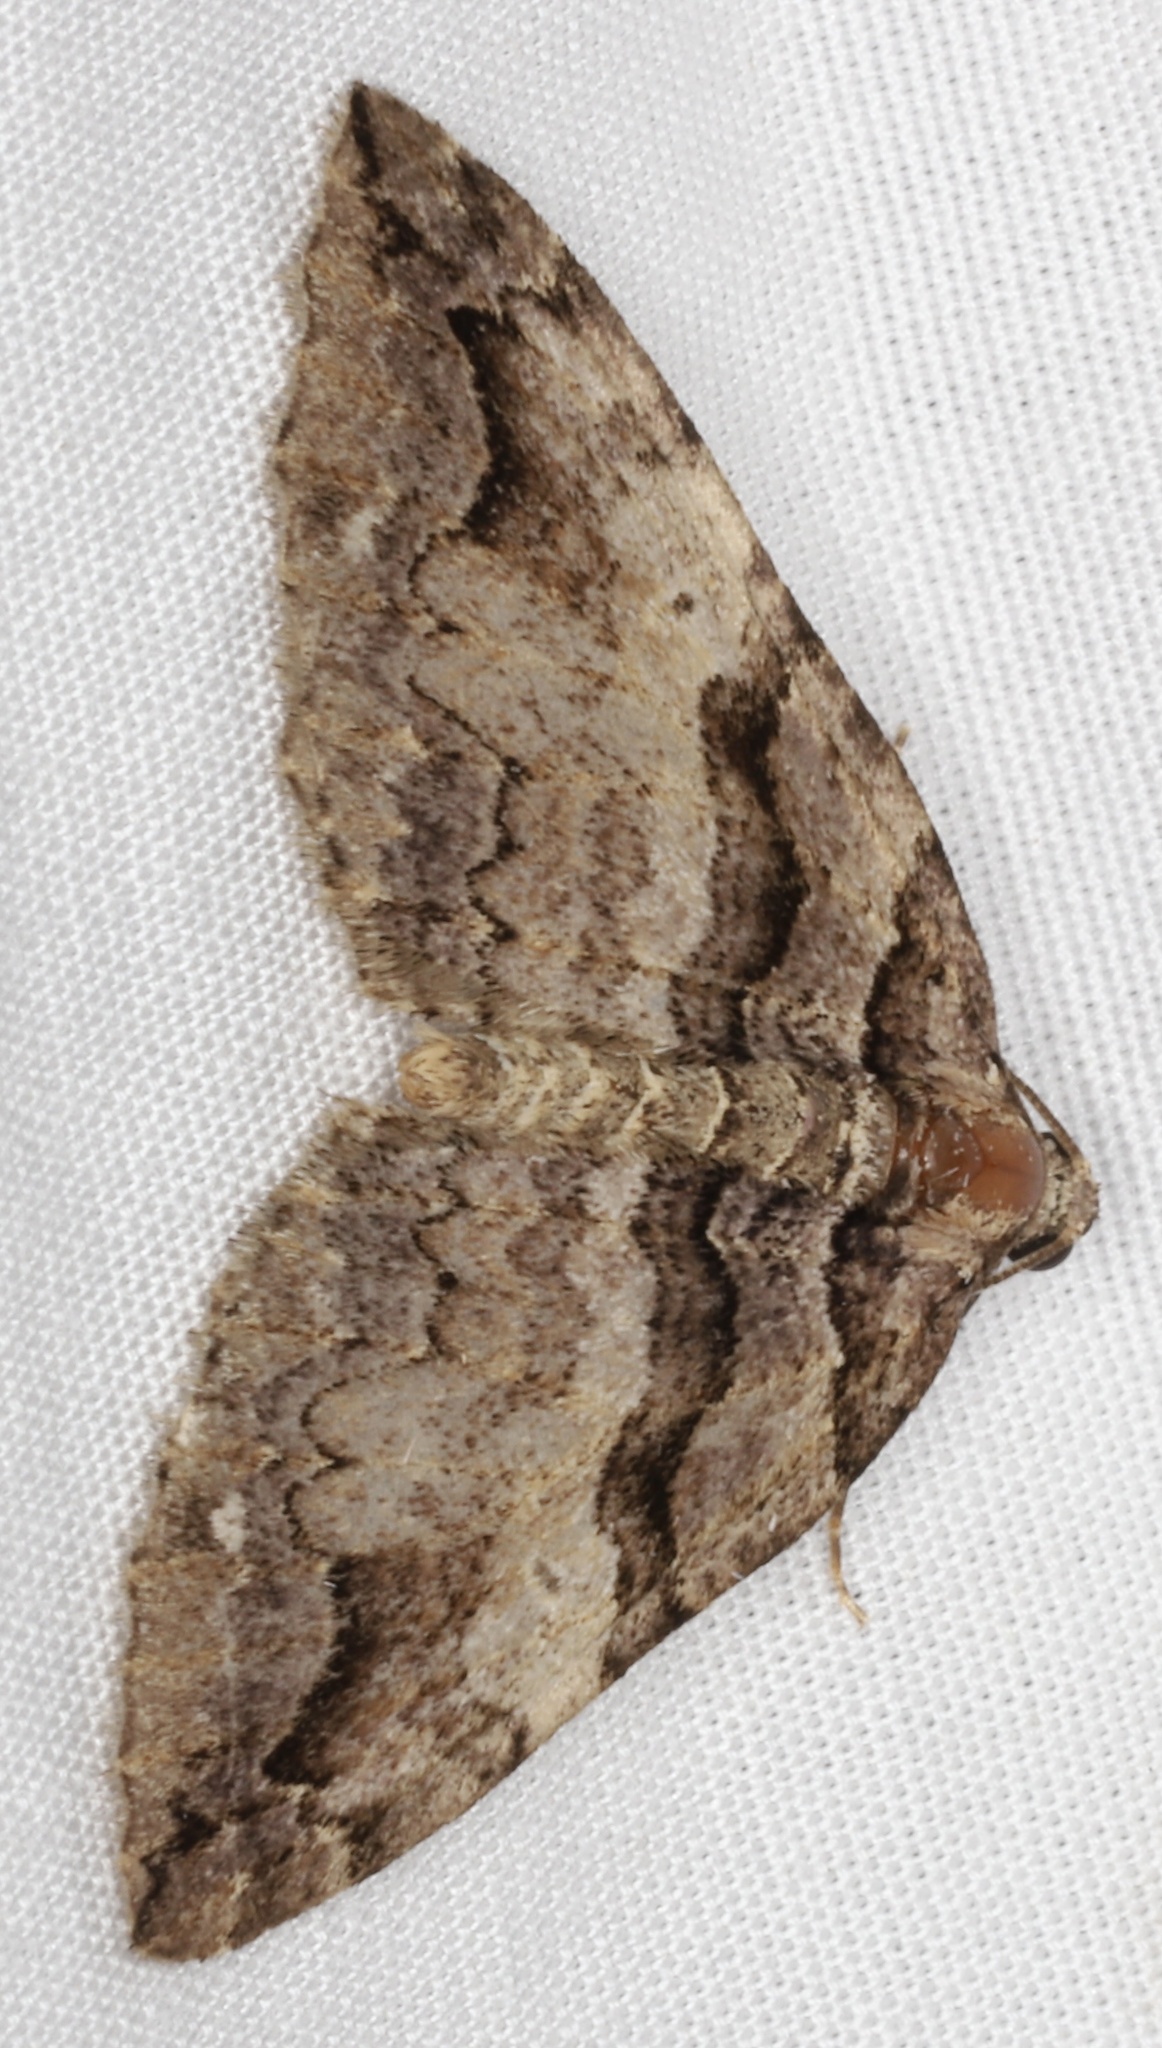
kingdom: Animalia
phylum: Arthropoda
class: Insecta
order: Lepidoptera
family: Geometridae
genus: Anticlea
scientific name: Anticlea vasiliata
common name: Variable carpet
